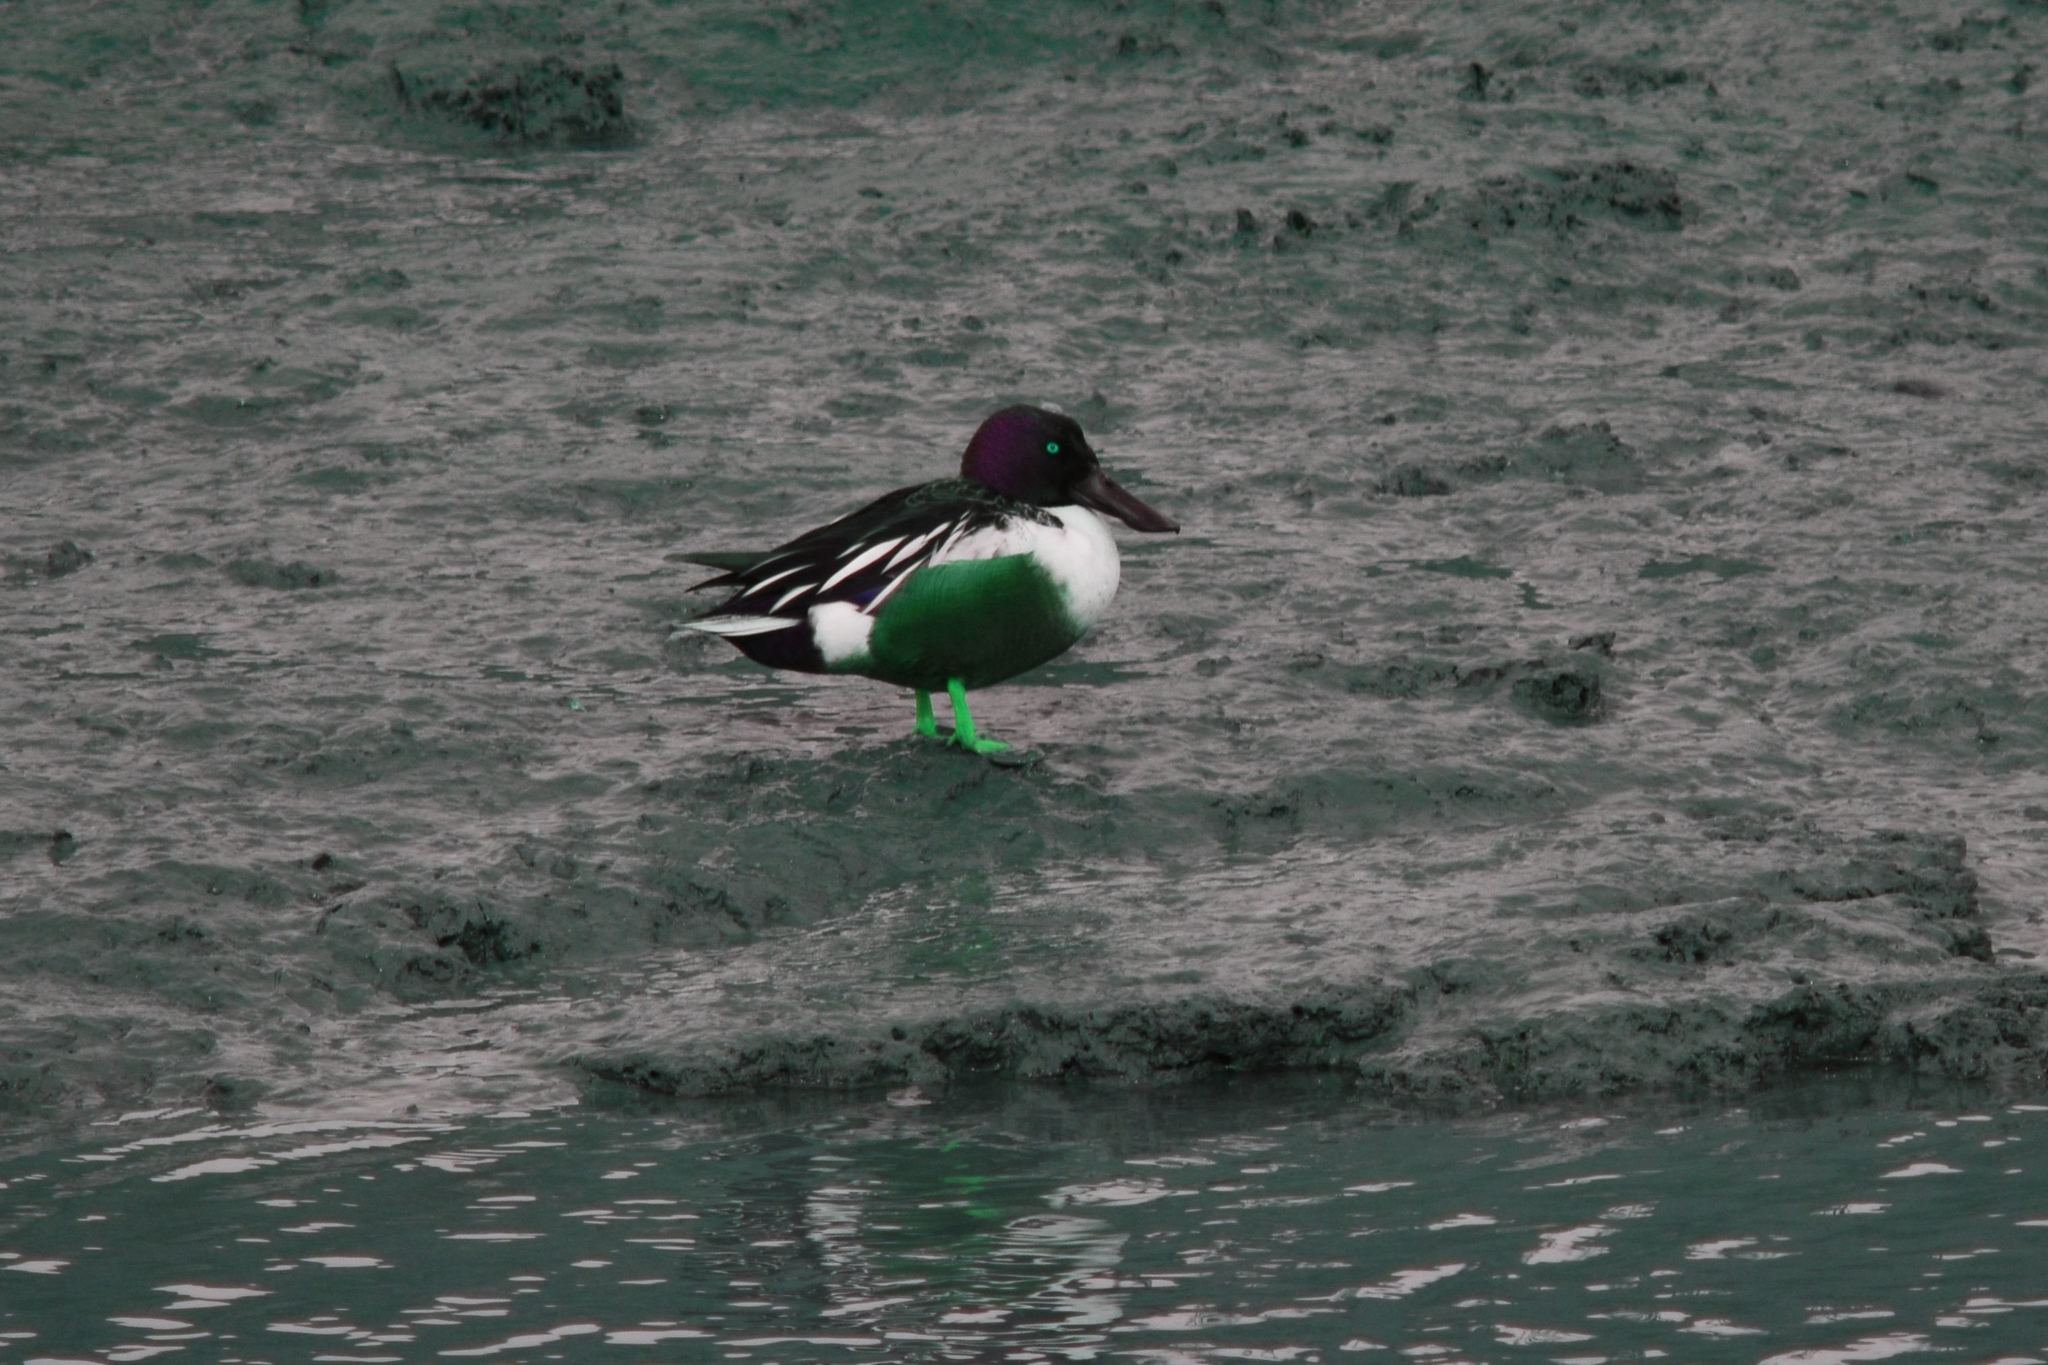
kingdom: Animalia
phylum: Chordata
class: Aves
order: Anseriformes
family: Anatidae
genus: Spatula
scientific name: Spatula clypeata
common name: Northern shoveler
